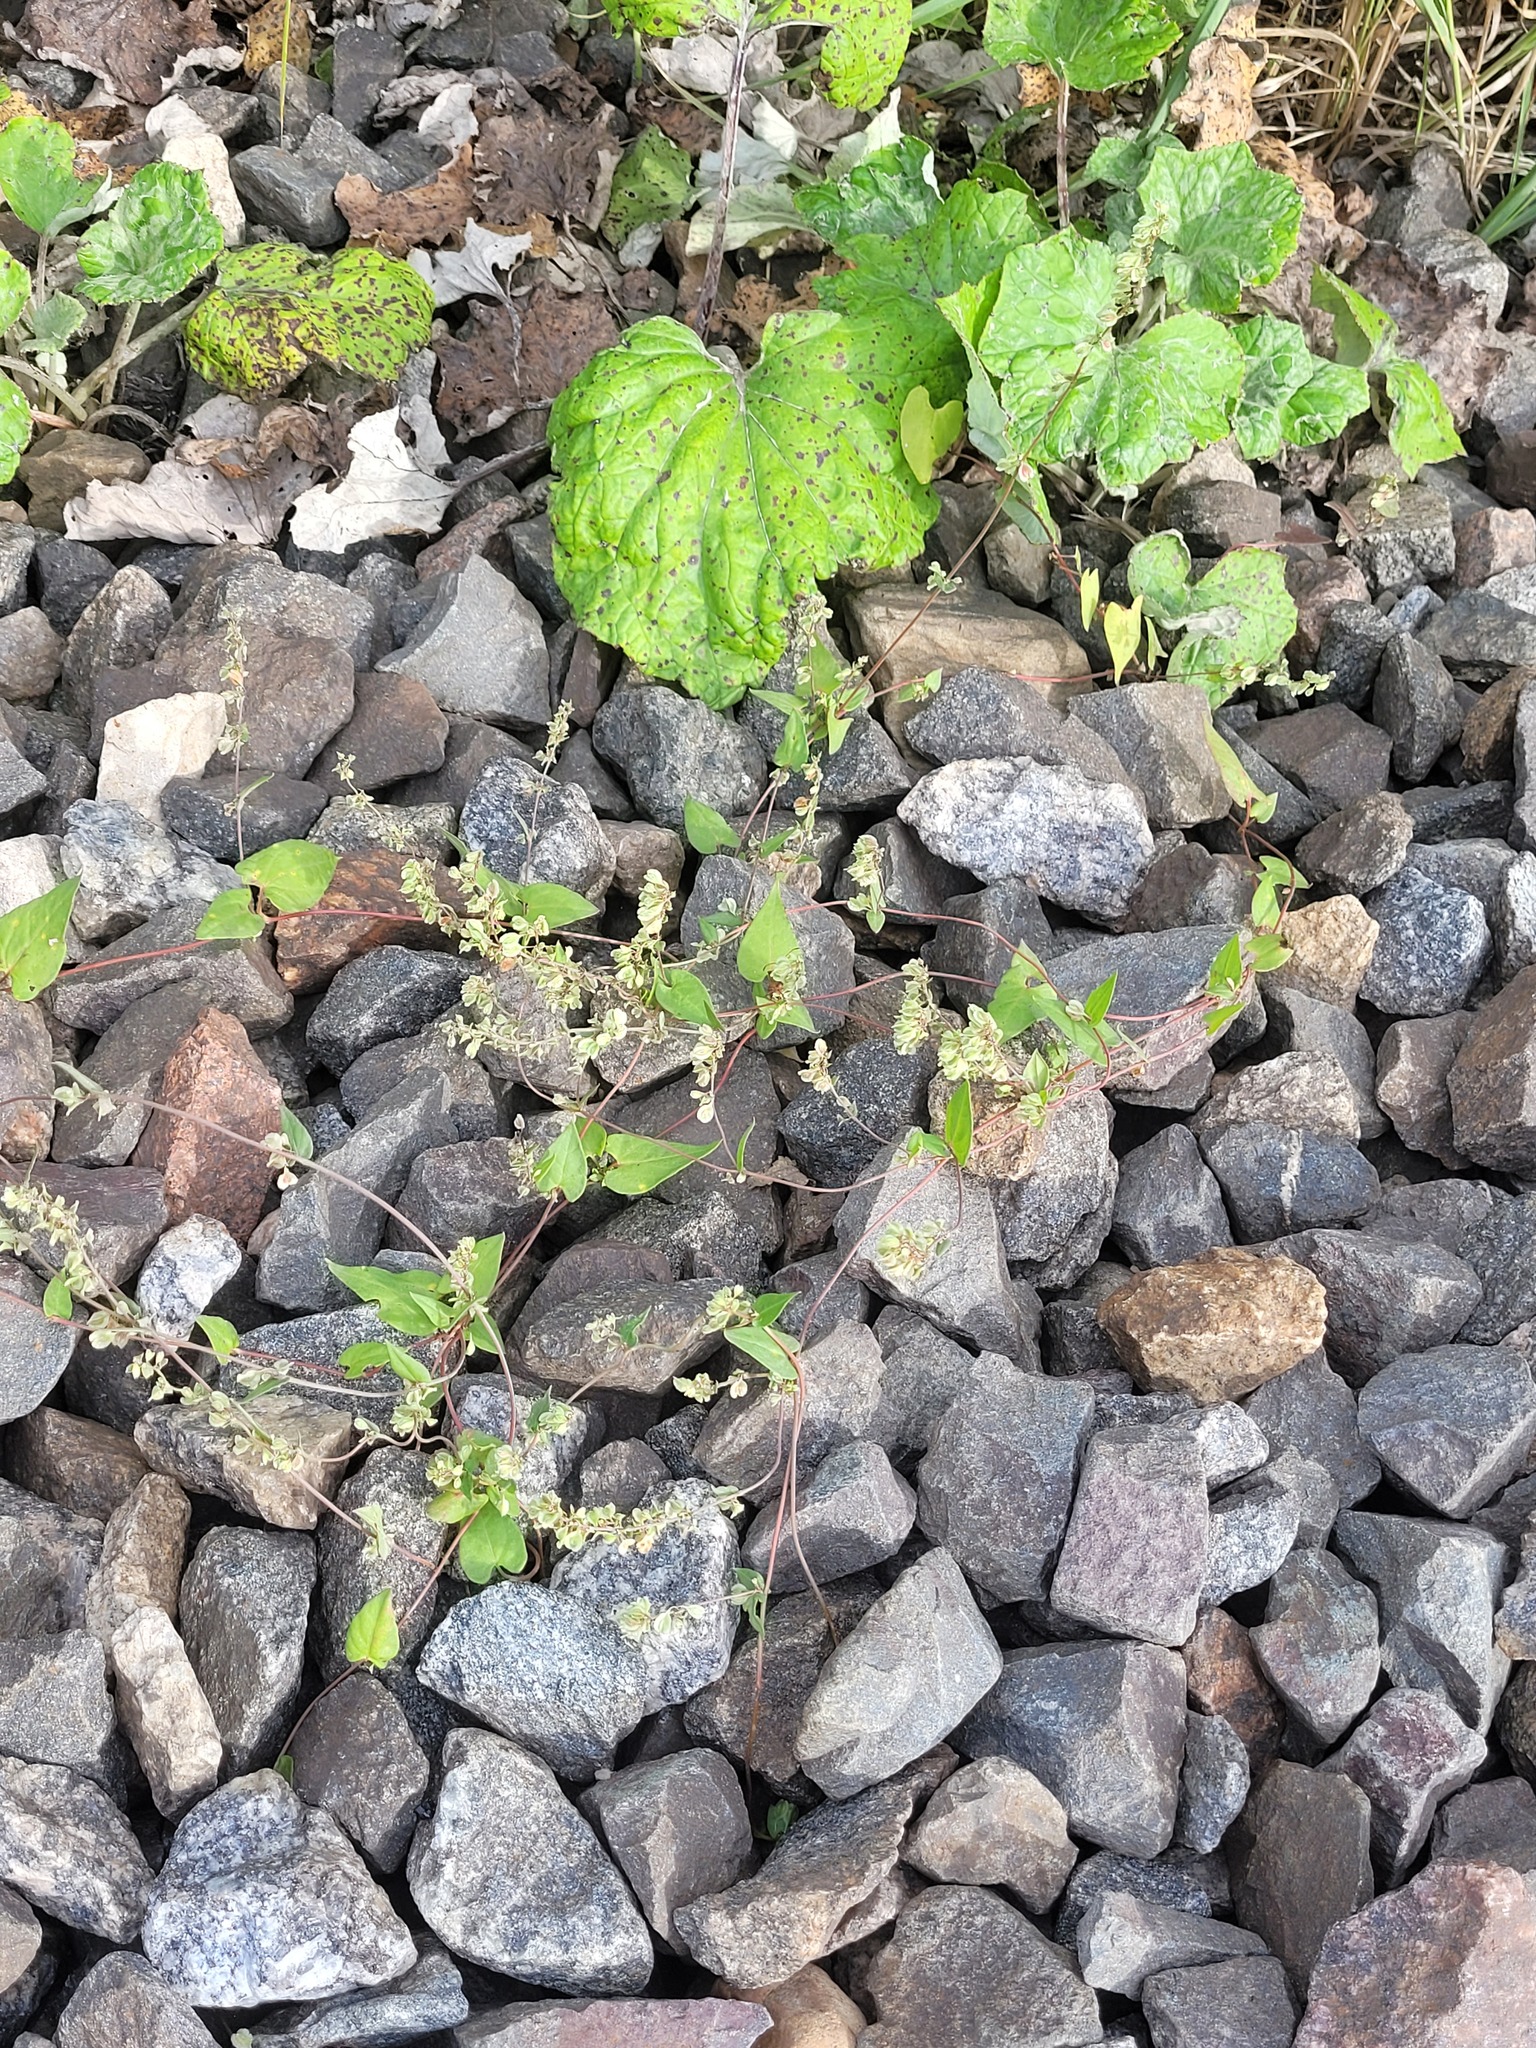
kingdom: Plantae
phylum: Tracheophyta
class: Magnoliopsida
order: Caryophyllales
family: Polygonaceae
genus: Fallopia
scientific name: Fallopia dumetorum
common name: Copse-bindweed
